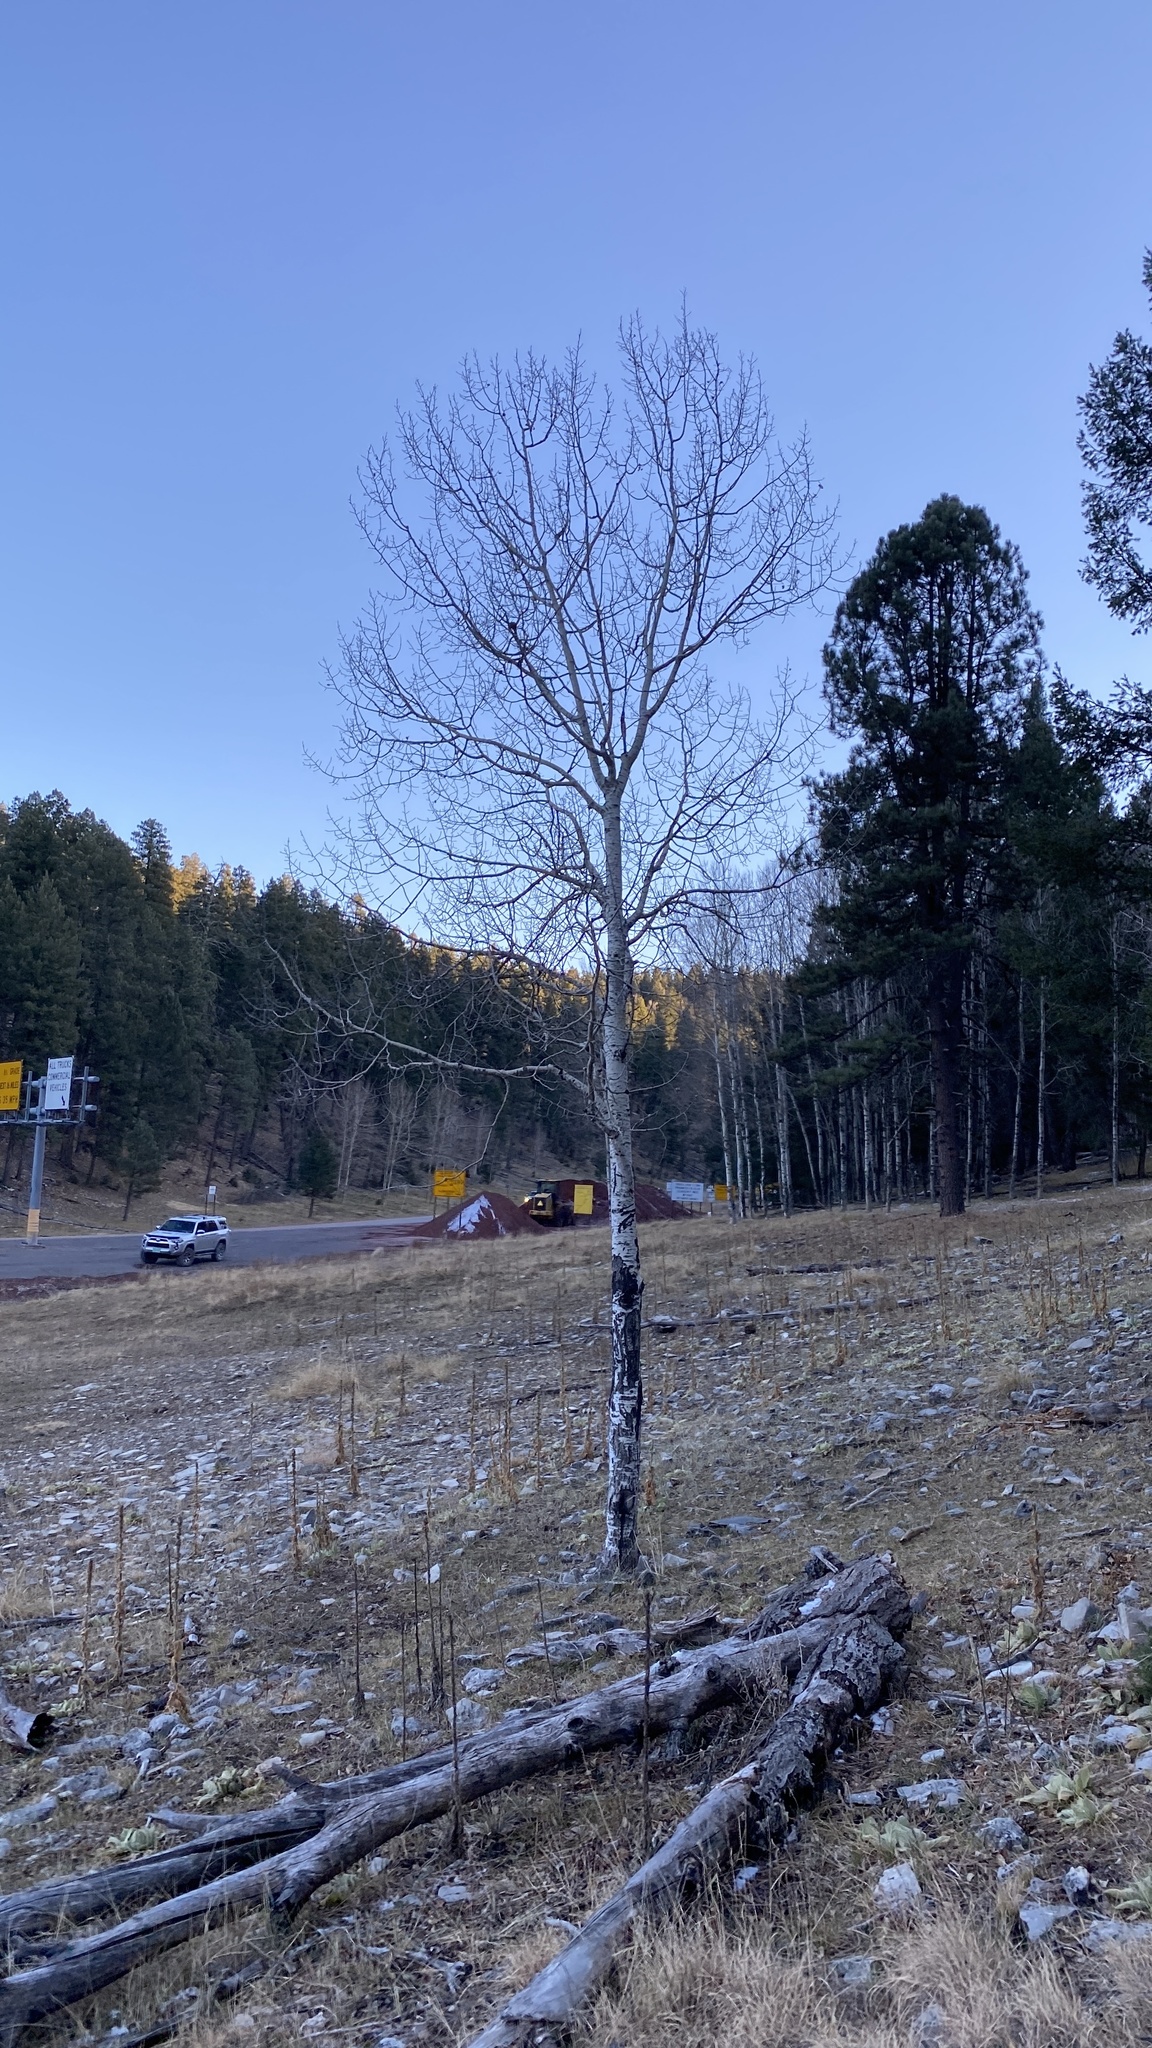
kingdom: Plantae
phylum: Tracheophyta
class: Magnoliopsida
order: Malpighiales
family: Salicaceae
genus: Populus
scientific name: Populus tremuloides
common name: Quaking aspen
